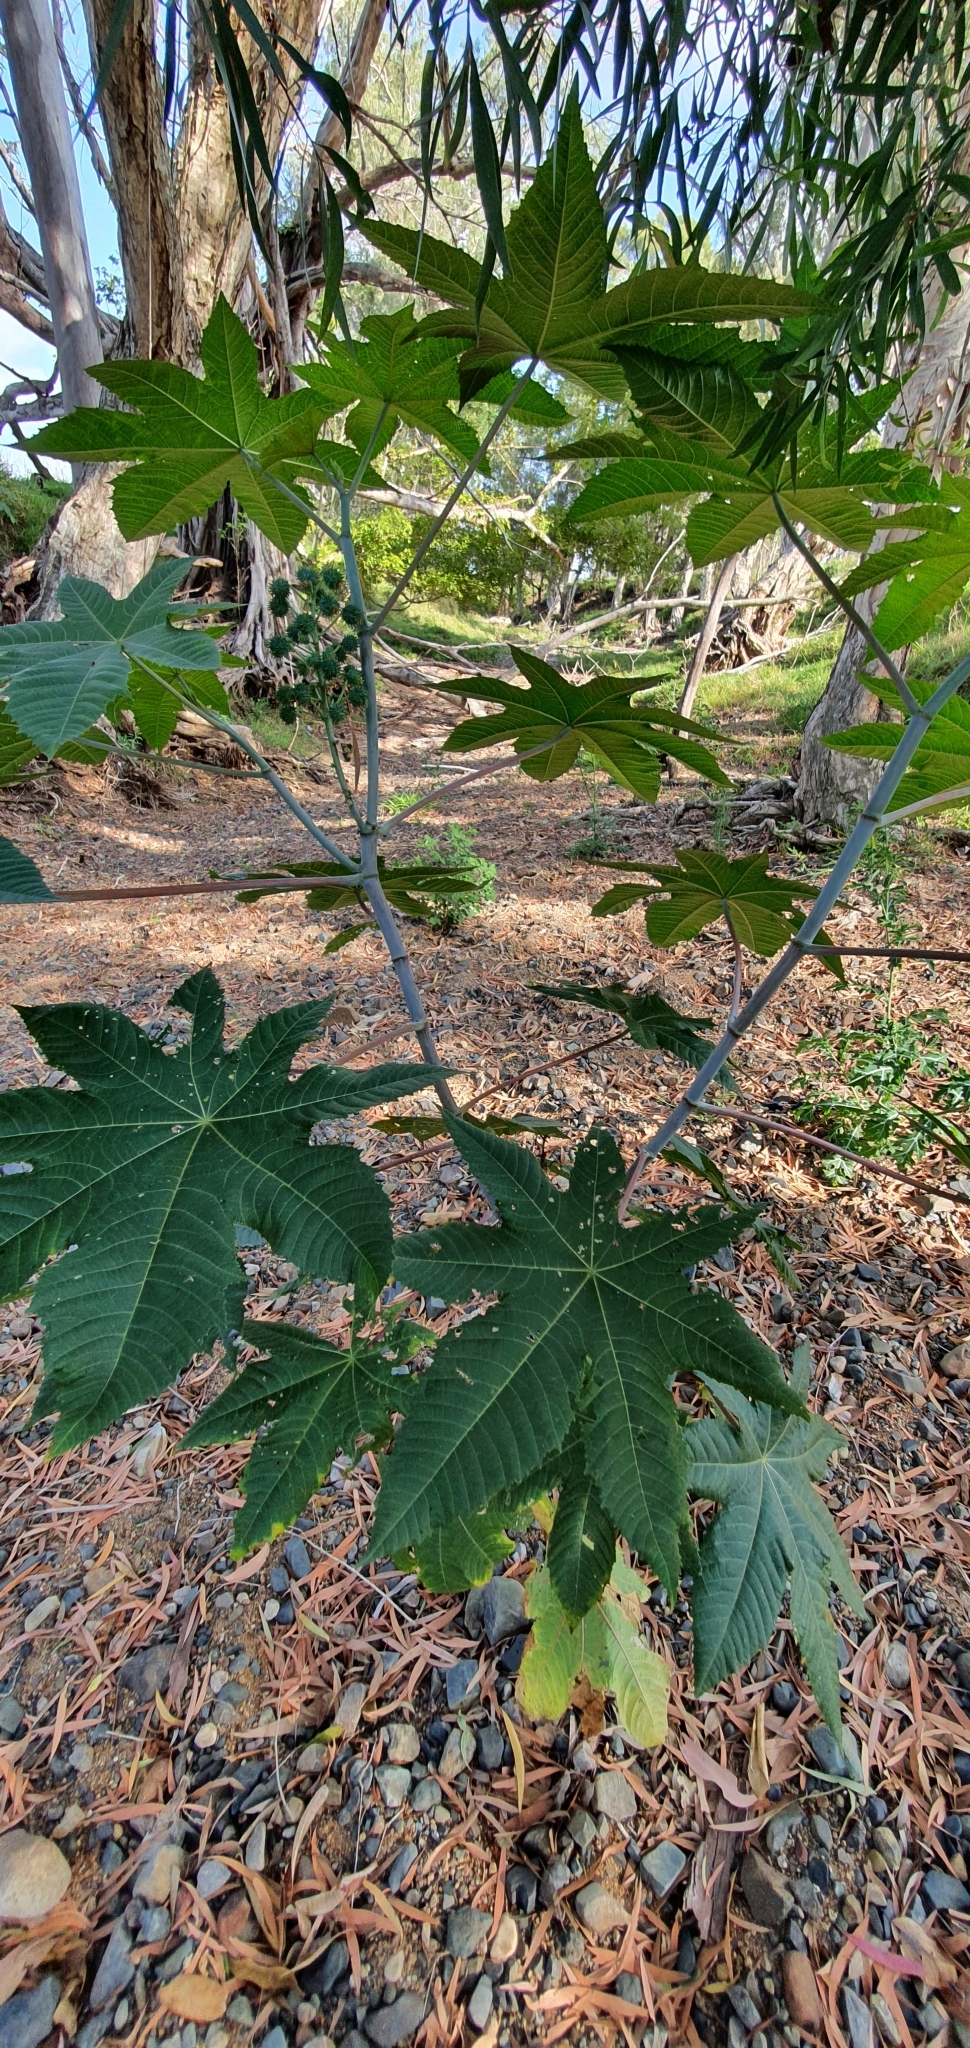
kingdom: Plantae
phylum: Tracheophyta
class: Magnoliopsida
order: Malpighiales
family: Euphorbiaceae
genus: Ricinus
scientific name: Ricinus communis
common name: Castor-oil-plant
